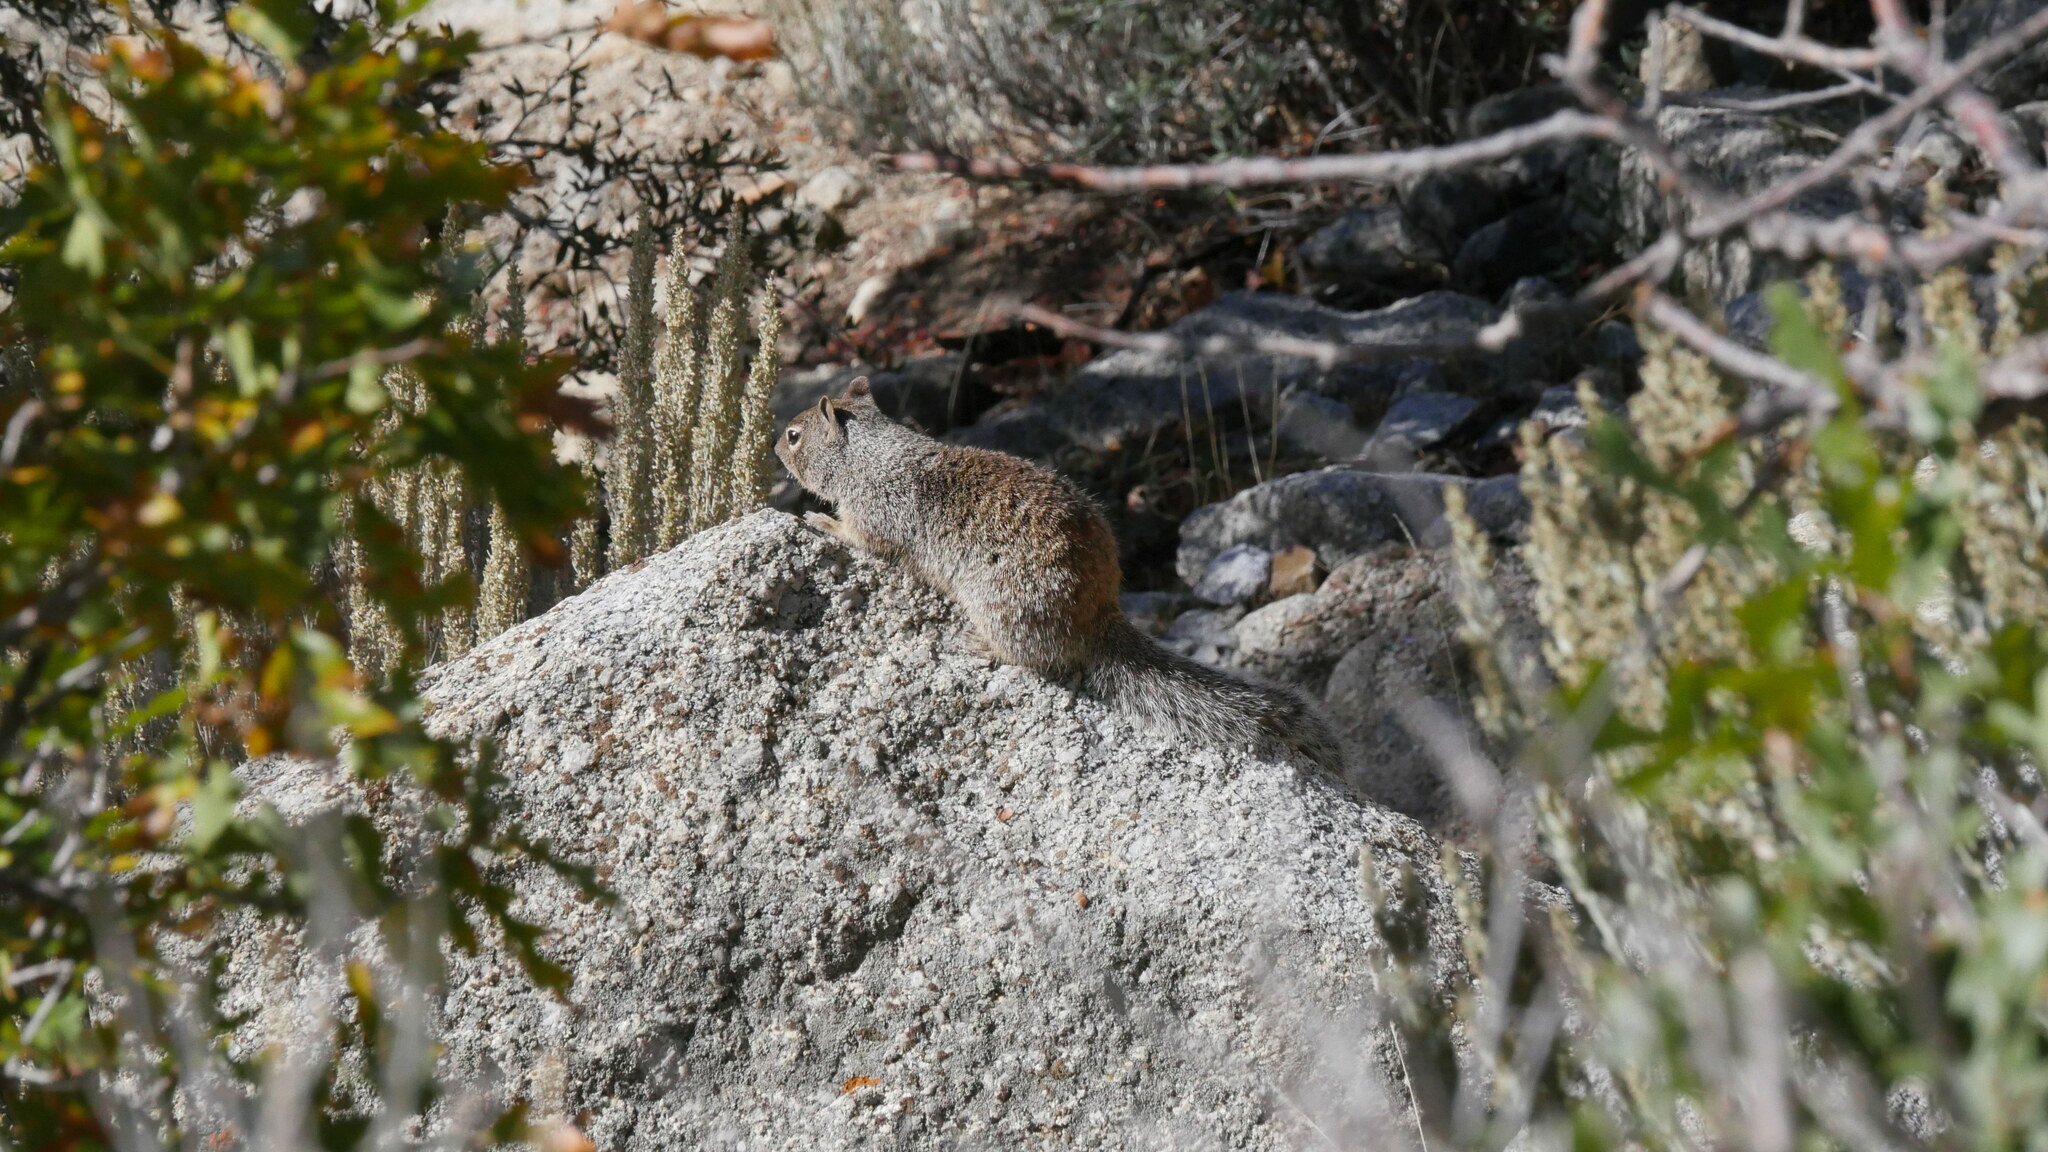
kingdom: Animalia
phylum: Chordata
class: Mammalia
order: Rodentia
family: Sciuridae
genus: Otospermophilus
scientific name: Otospermophilus variegatus
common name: Rock squirrel
